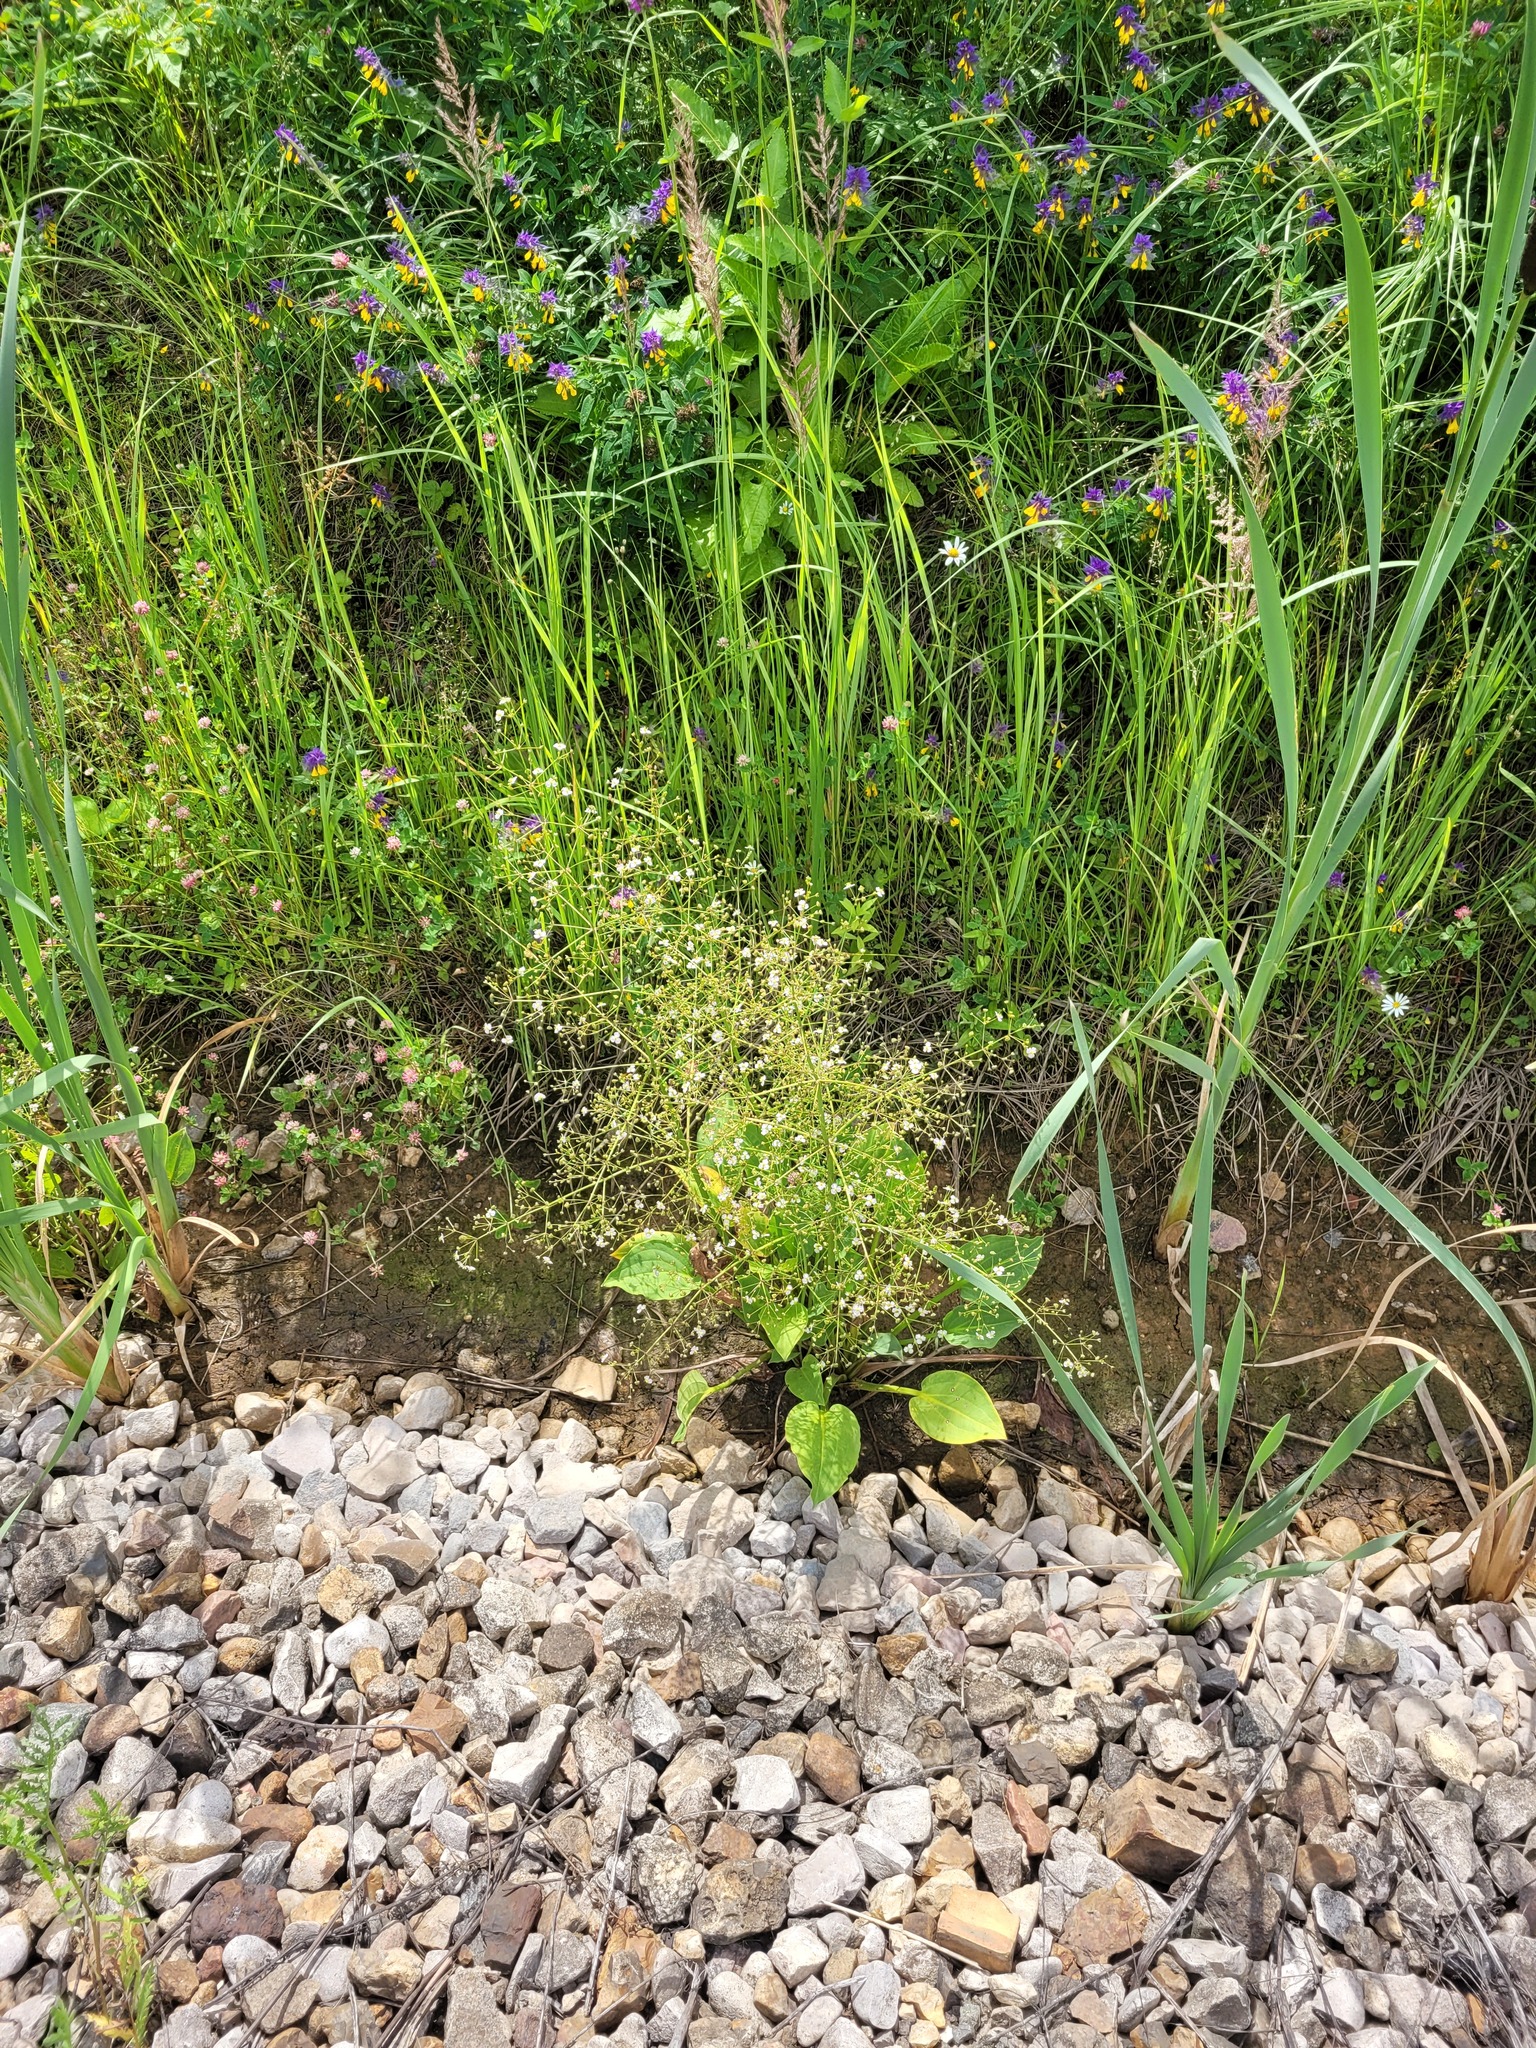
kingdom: Plantae
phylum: Tracheophyta
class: Liliopsida
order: Alismatales
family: Alismataceae
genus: Alisma
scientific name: Alisma plantago-aquatica
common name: Water-plantain
